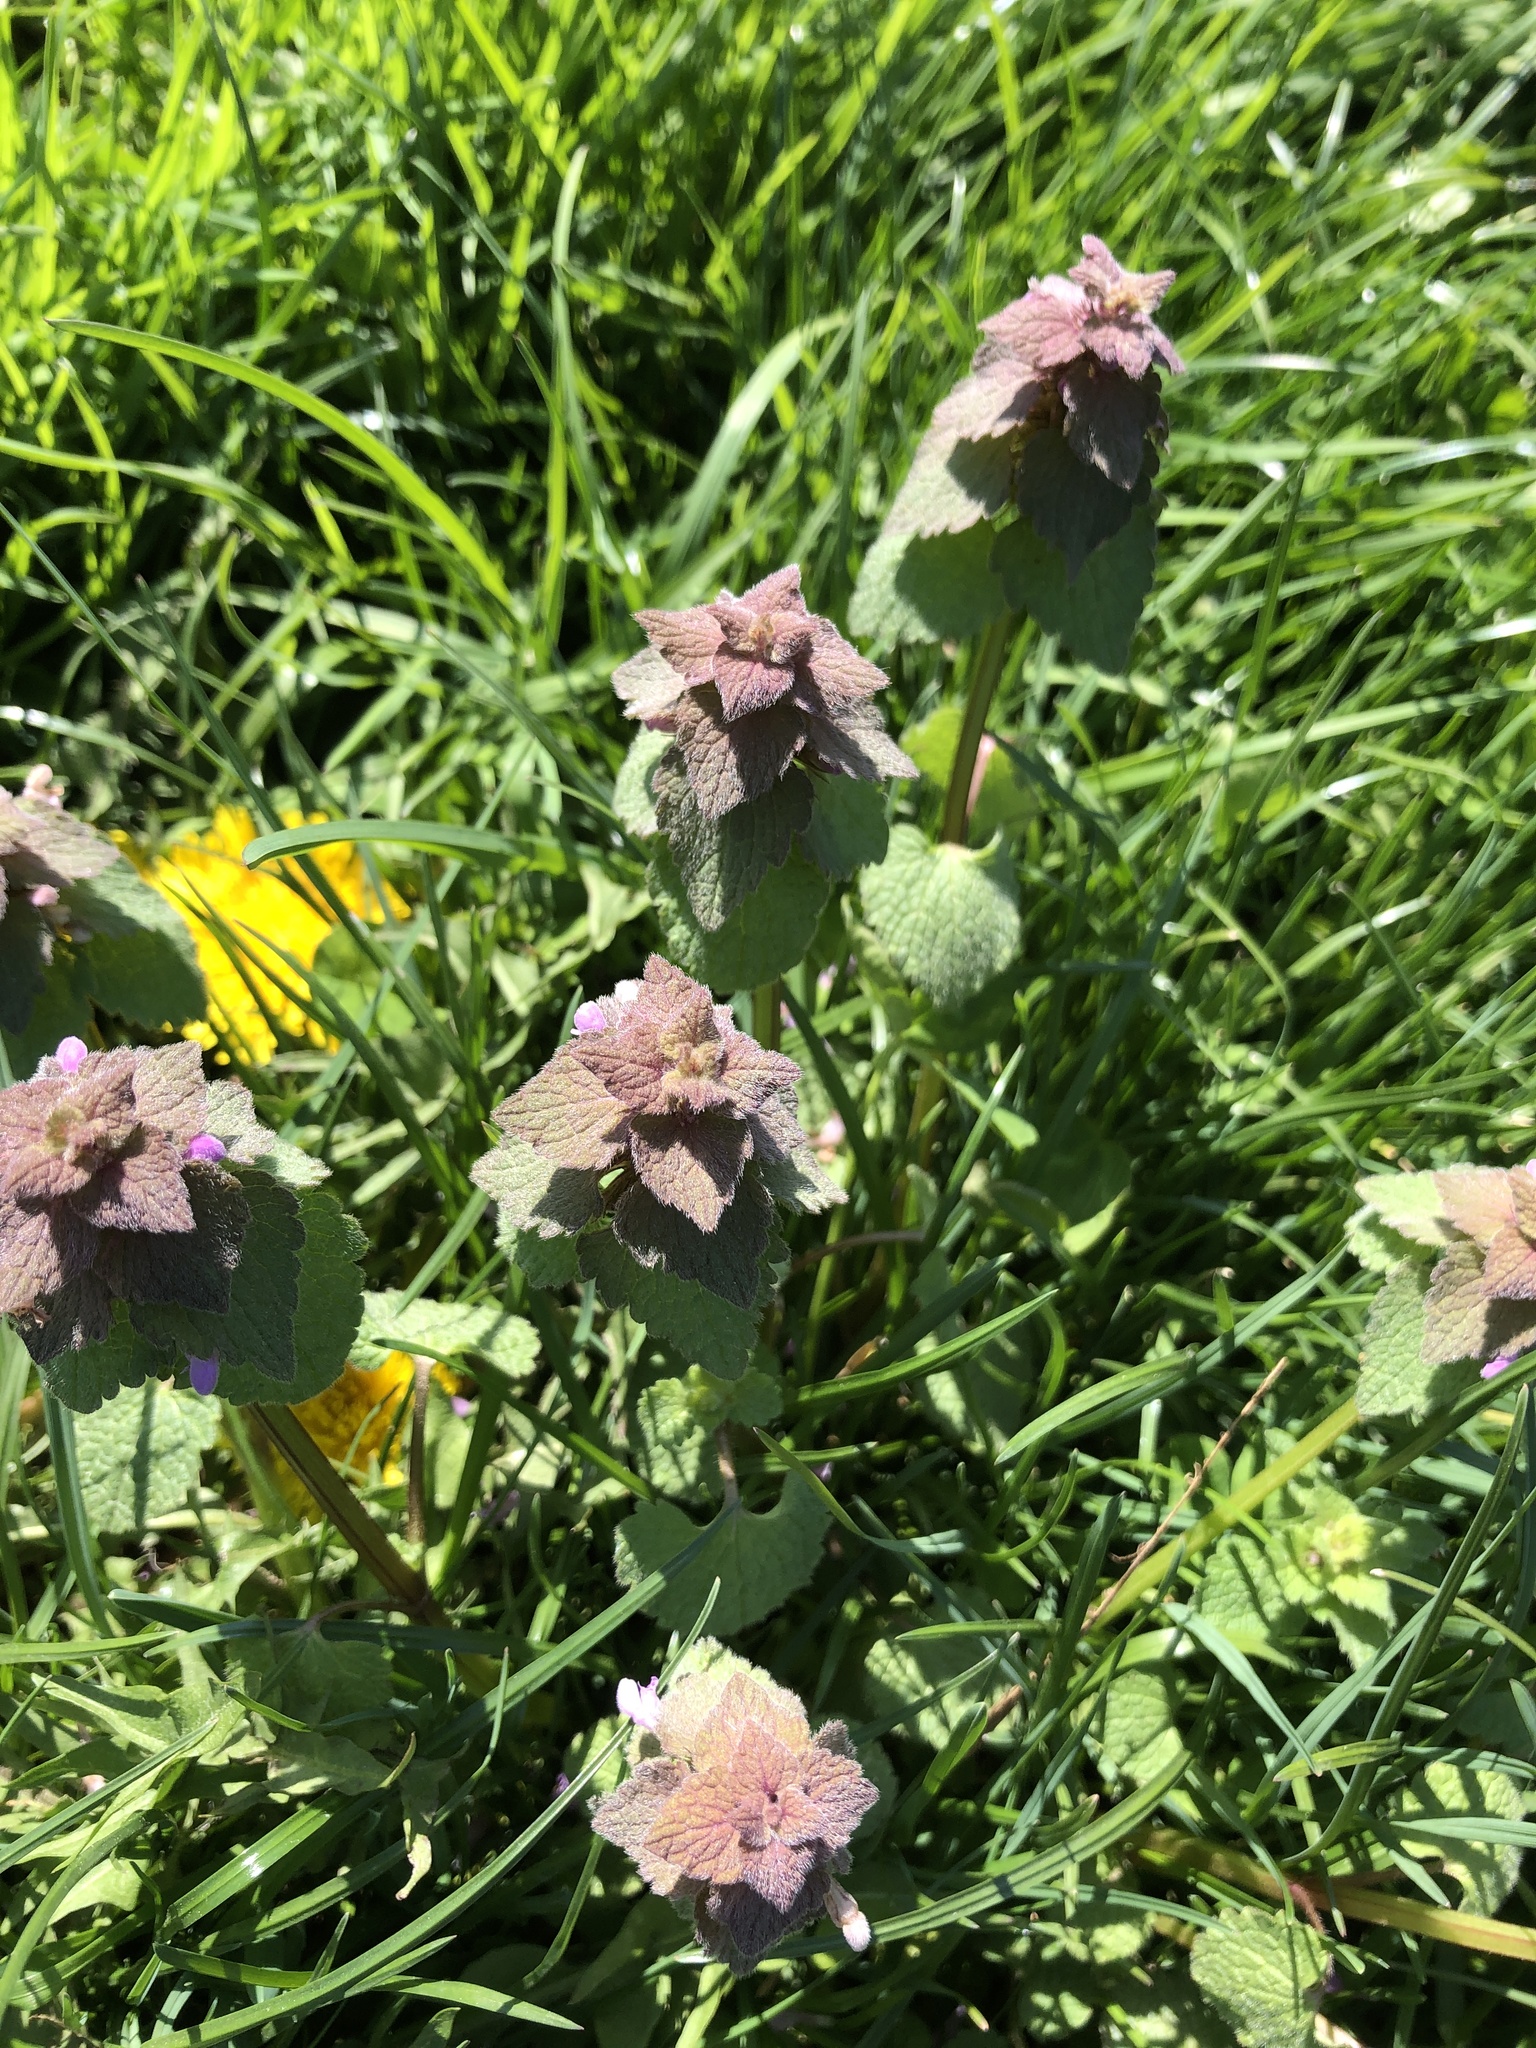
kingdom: Plantae
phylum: Tracheophyta
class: Magnoliopsida
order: Lamiales
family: Lamiaceae
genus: Lamium
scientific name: Lamium purpureum
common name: Red dead-nettle
